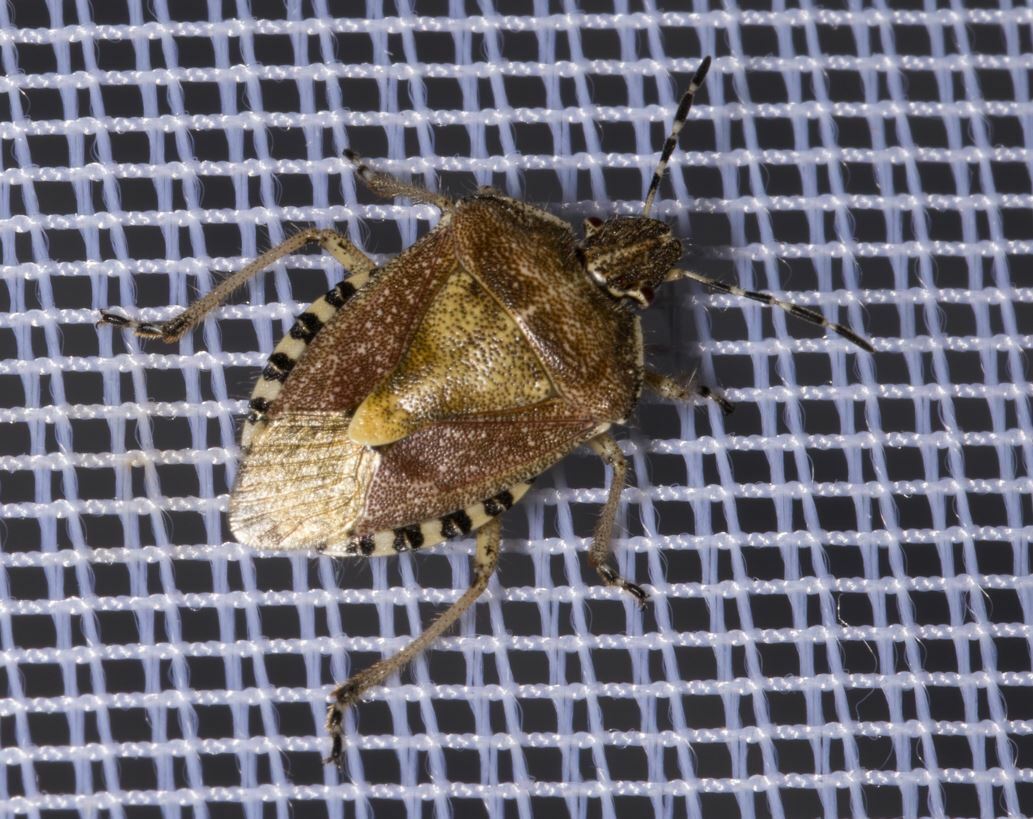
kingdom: Animalia
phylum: Arthropoda
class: Insecta
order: Hemiptera
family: Pentatomidae
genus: Dolycoris
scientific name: Dolycoris baccarum
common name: Sloe bug
